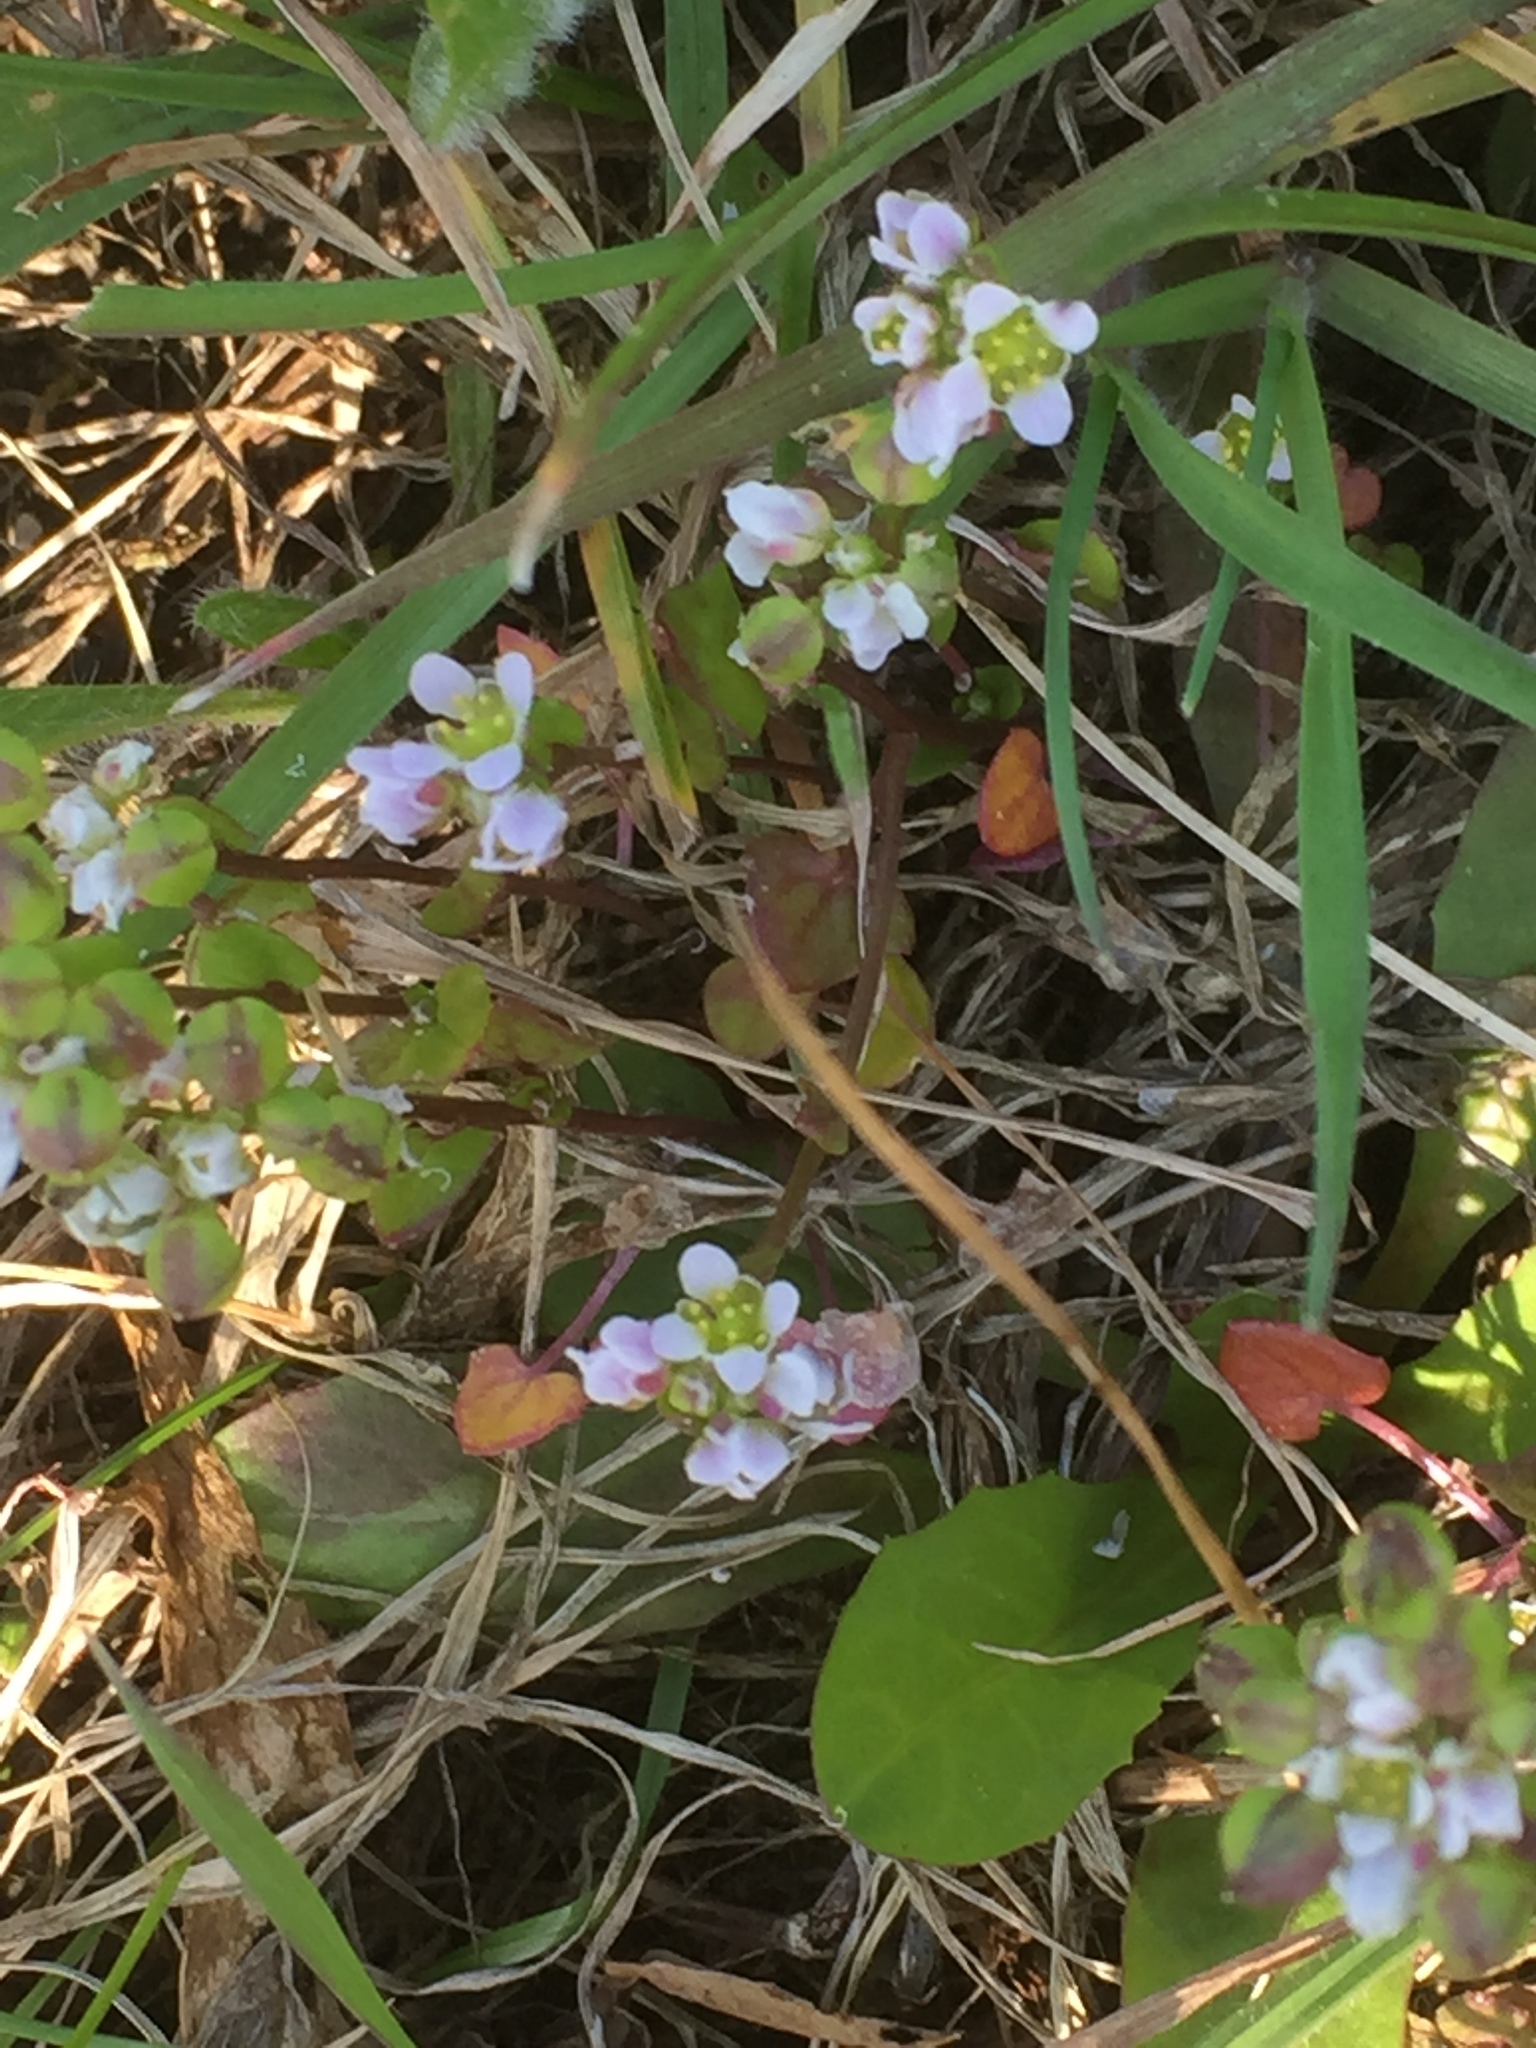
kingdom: Plantae
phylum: Tracheophyta
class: Magnoliopsida
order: Brassicales
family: Brassicaceae
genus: Cochlearia
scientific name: Cochlearia officinalis
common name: Scurvy-grass
